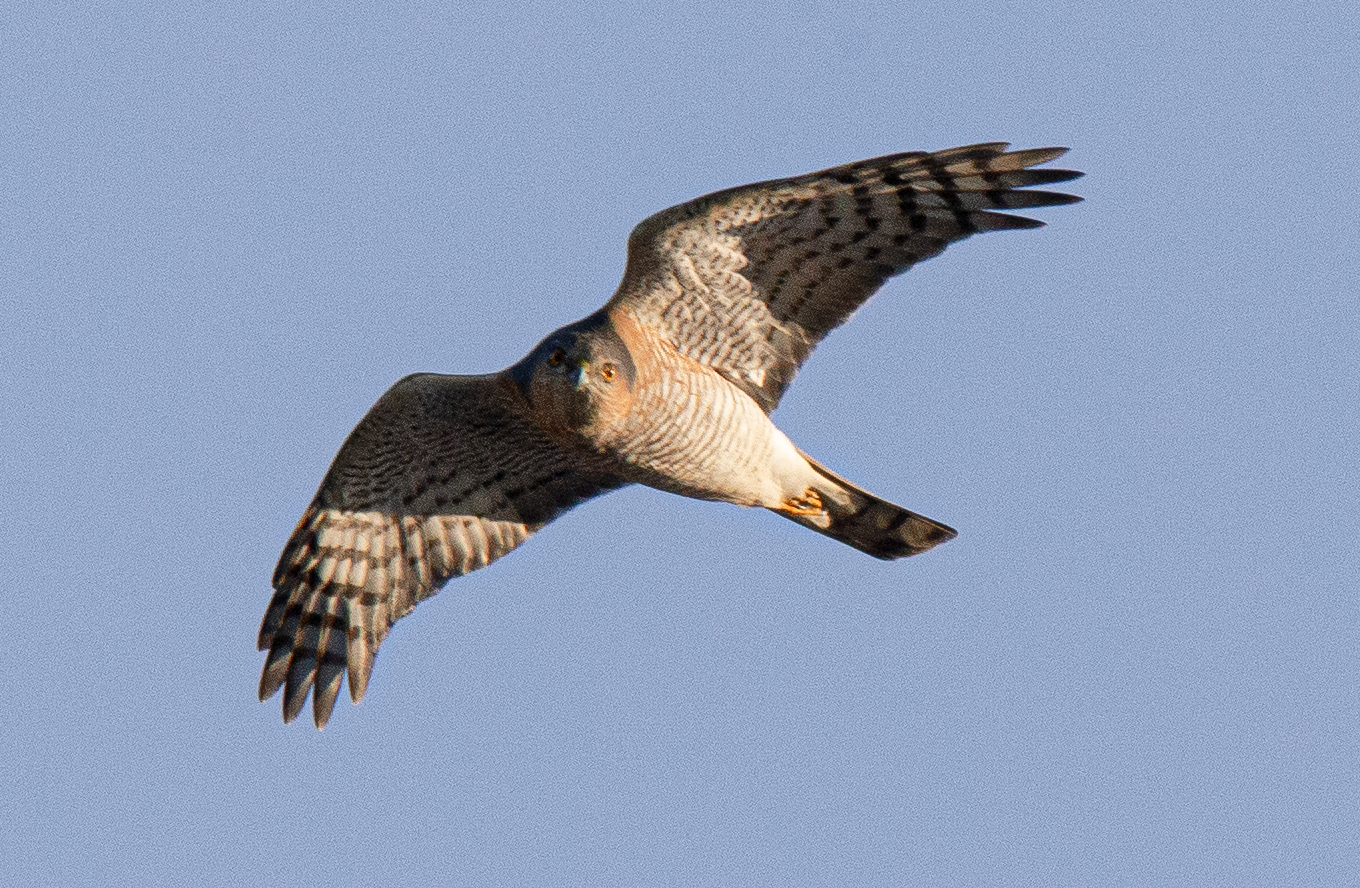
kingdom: Animalia
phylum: Chordata
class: Aves
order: Accipitriformes
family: Accipitridae
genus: Accipiter
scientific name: Accipiter nisus
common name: Eurasian sparrowhawk
